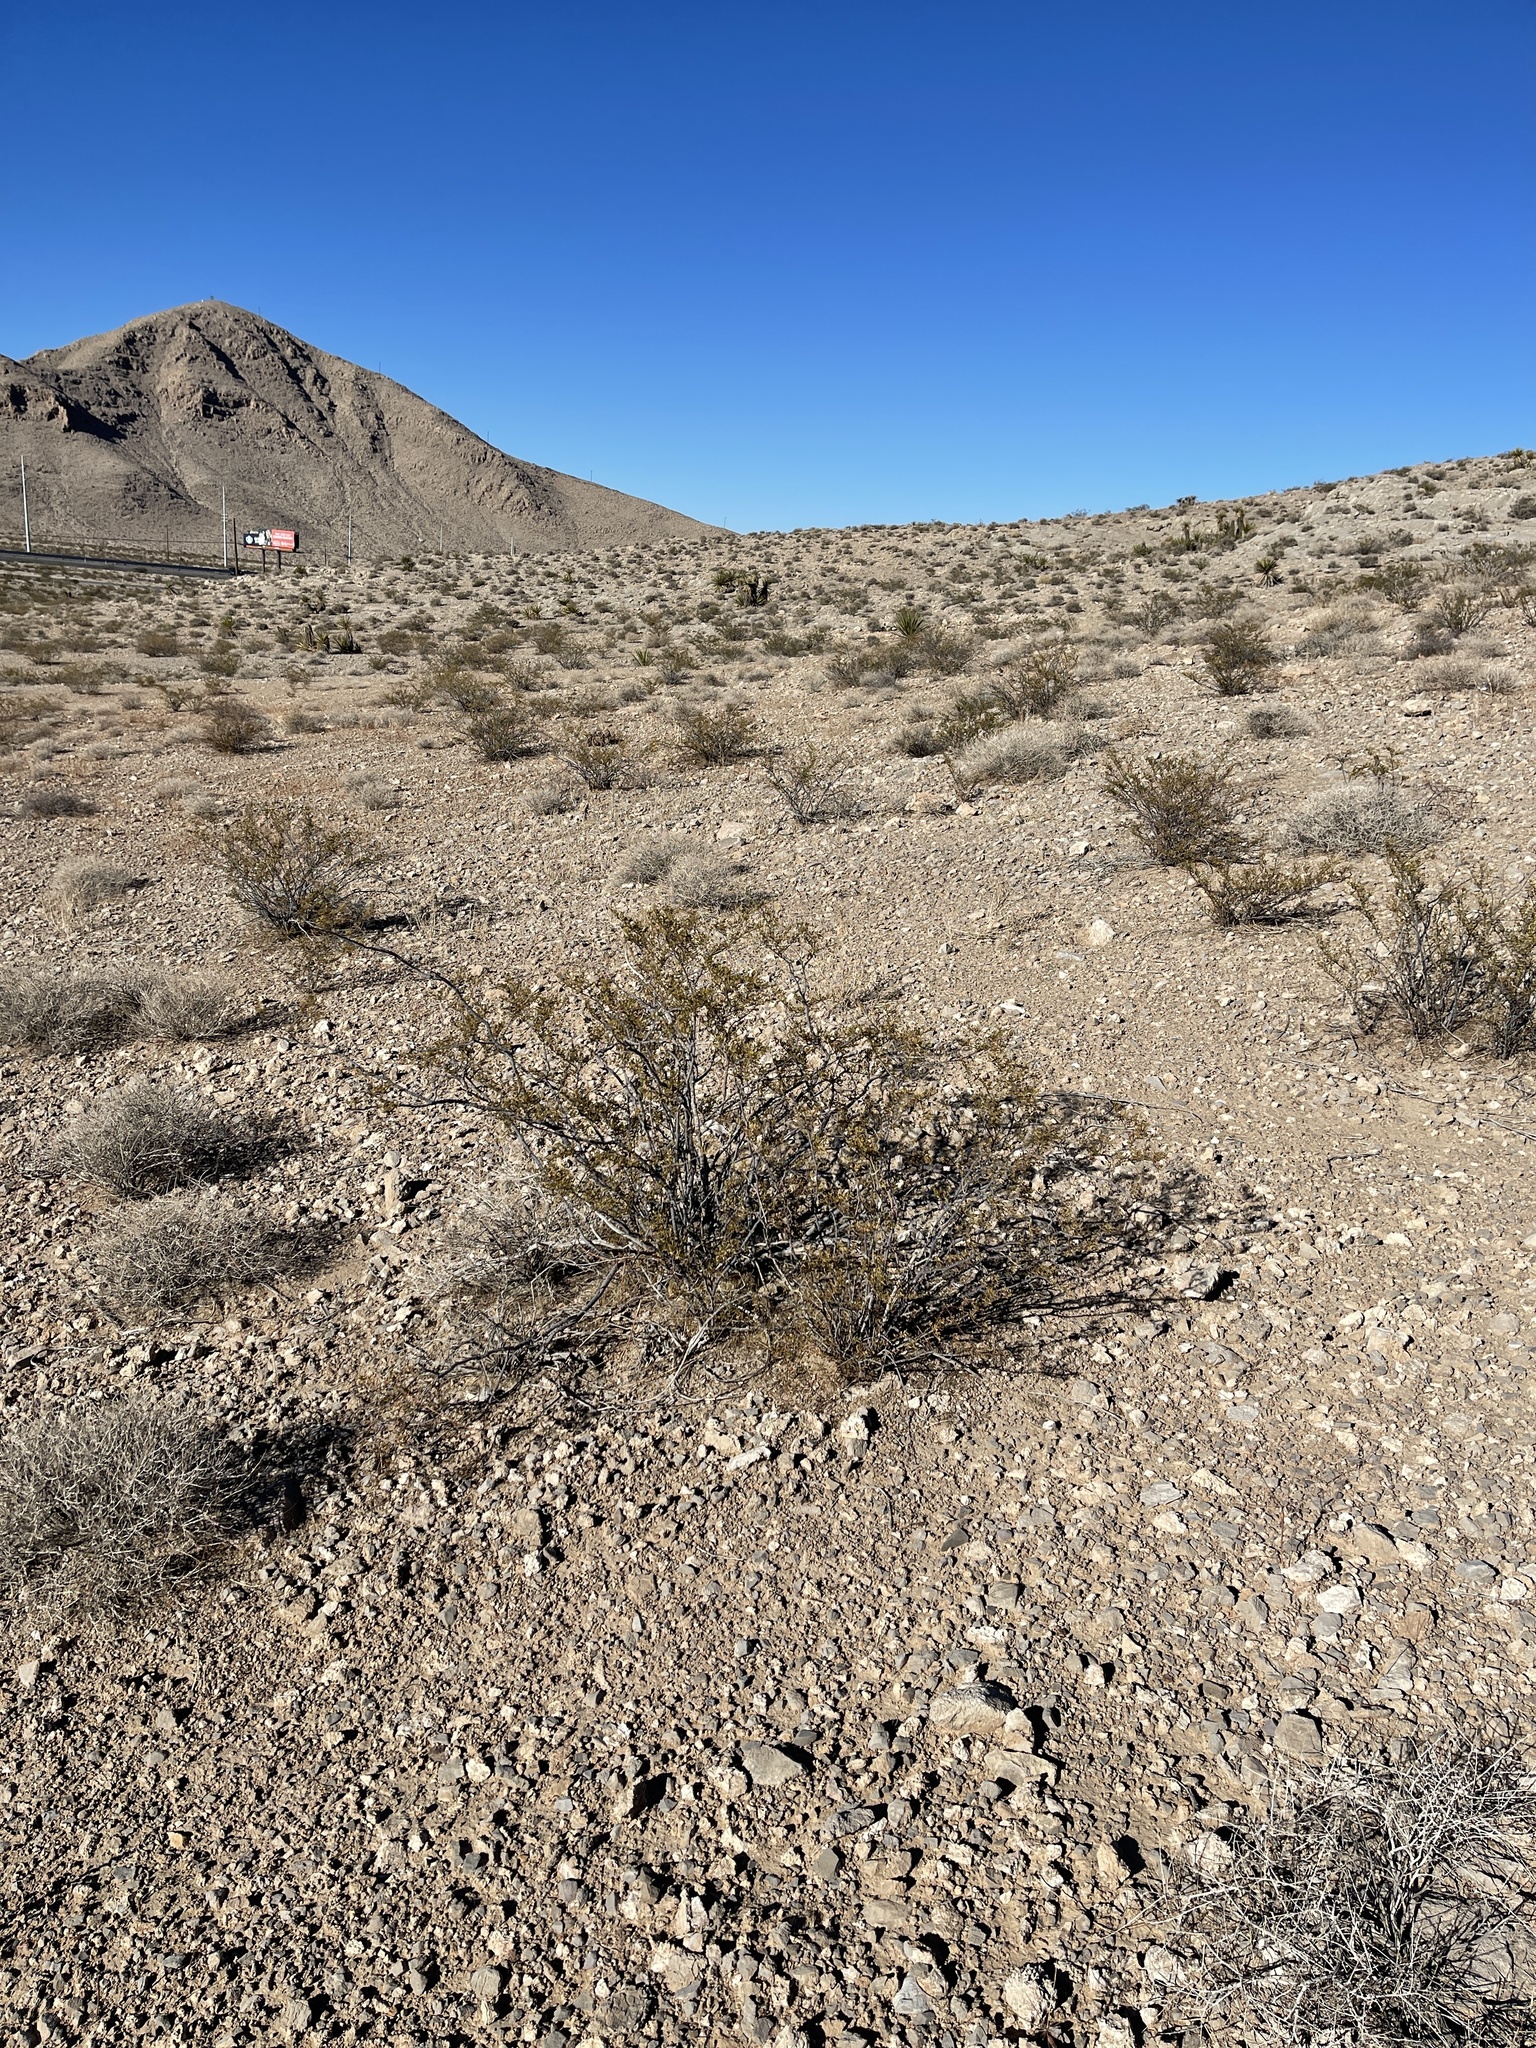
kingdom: Plantae
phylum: Tracheophyta
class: Magnoliopsida
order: Zygophyllales
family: Zygophyllaceae
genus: Larrea
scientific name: Larrea tridentata
